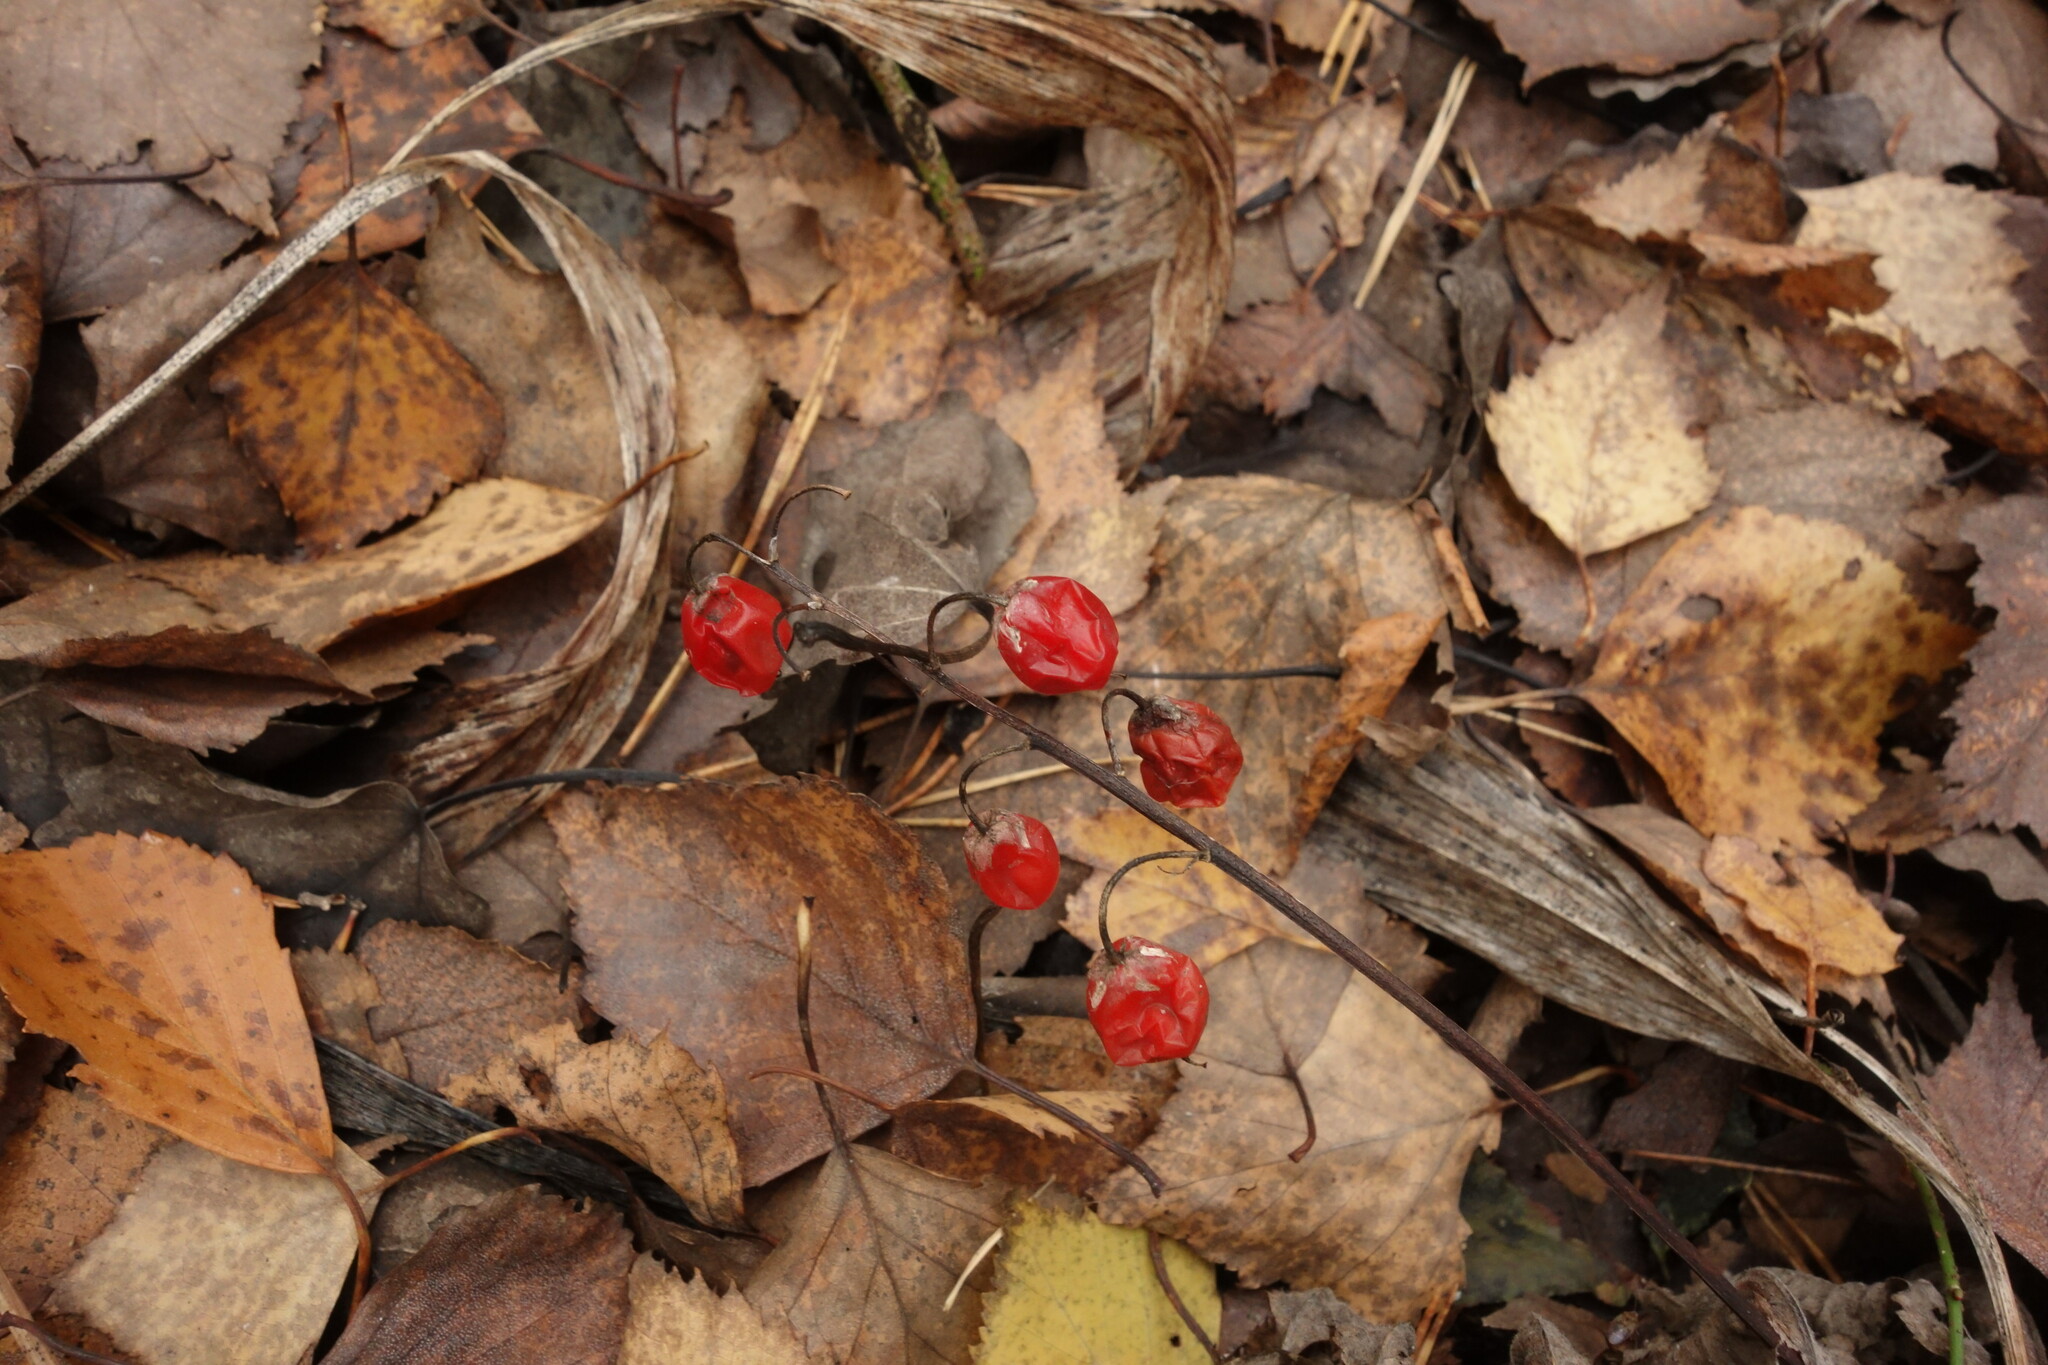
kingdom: Plantae
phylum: Tracheophyta
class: Liliopsida
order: Asparagales
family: Asparagaceae
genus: Convallaria
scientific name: Convallaria majalis
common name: Lily-of-the-valley
